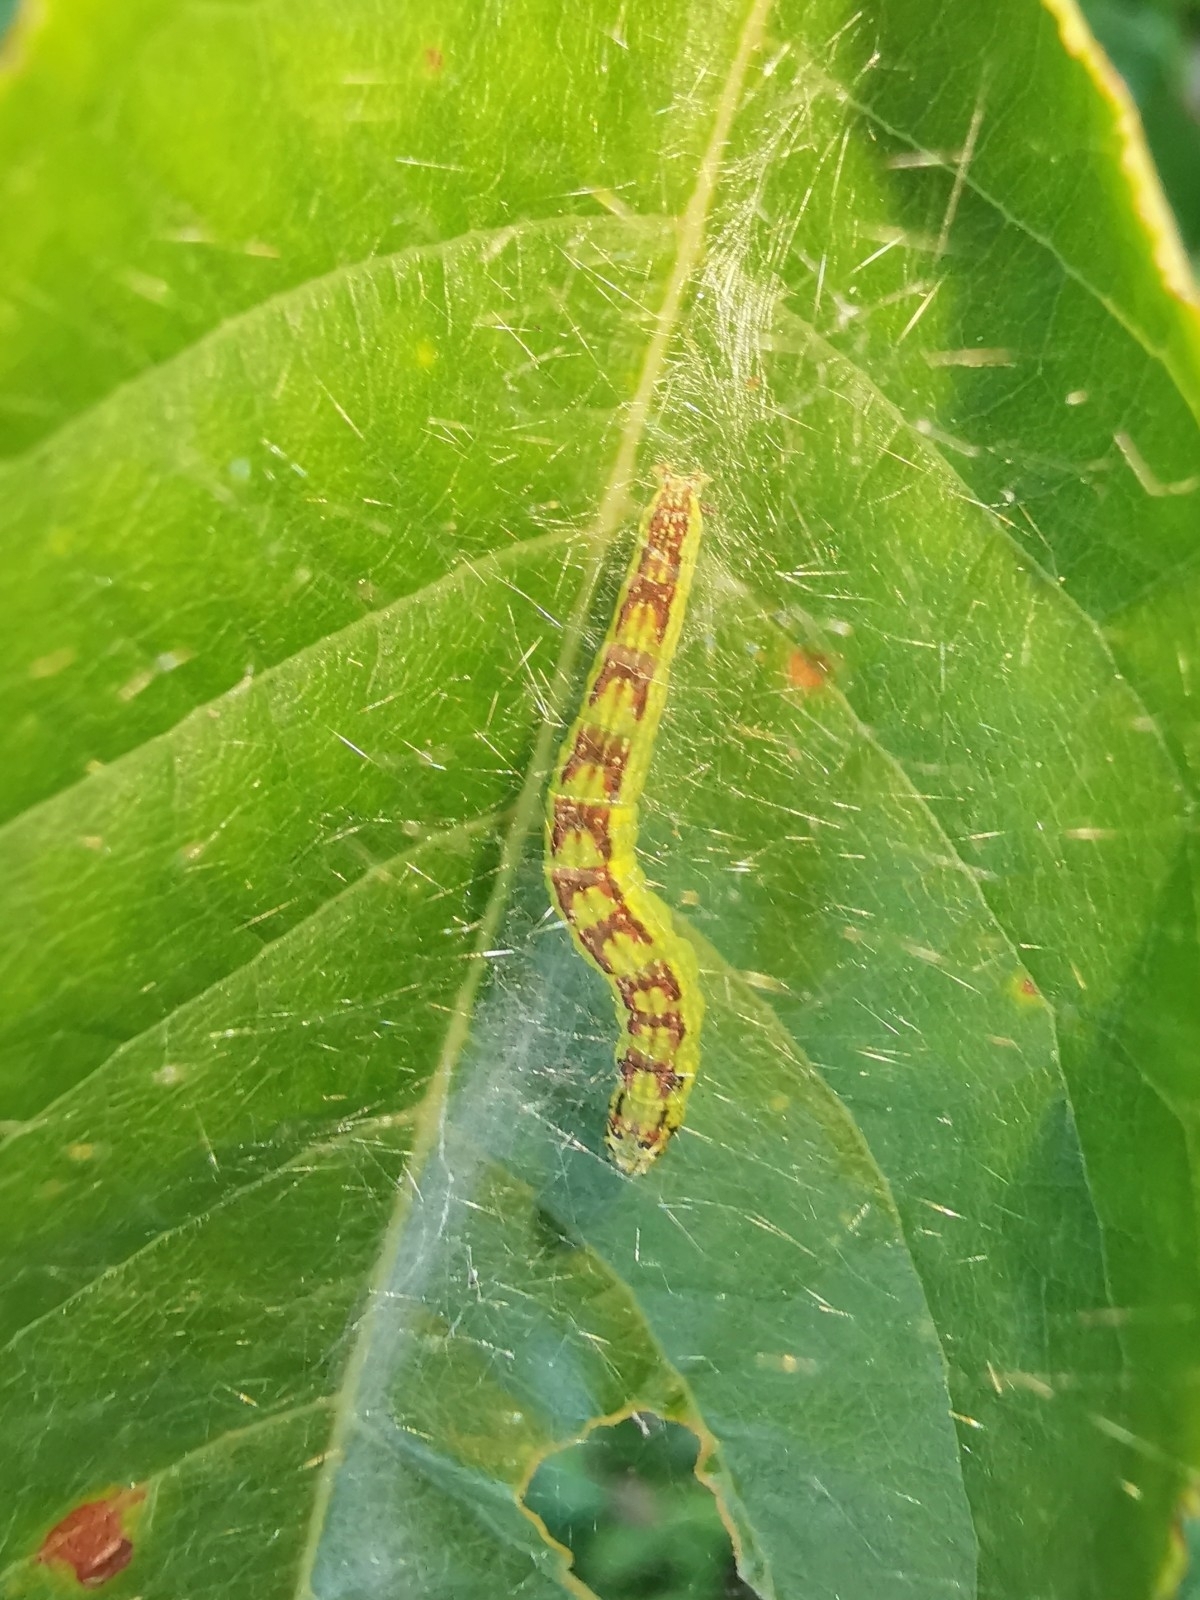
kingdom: Animalia
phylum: Arthropoda
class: Insecta
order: Lepidoptera
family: Pyralidae
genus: Oreana
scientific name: Oreana unicolorella
